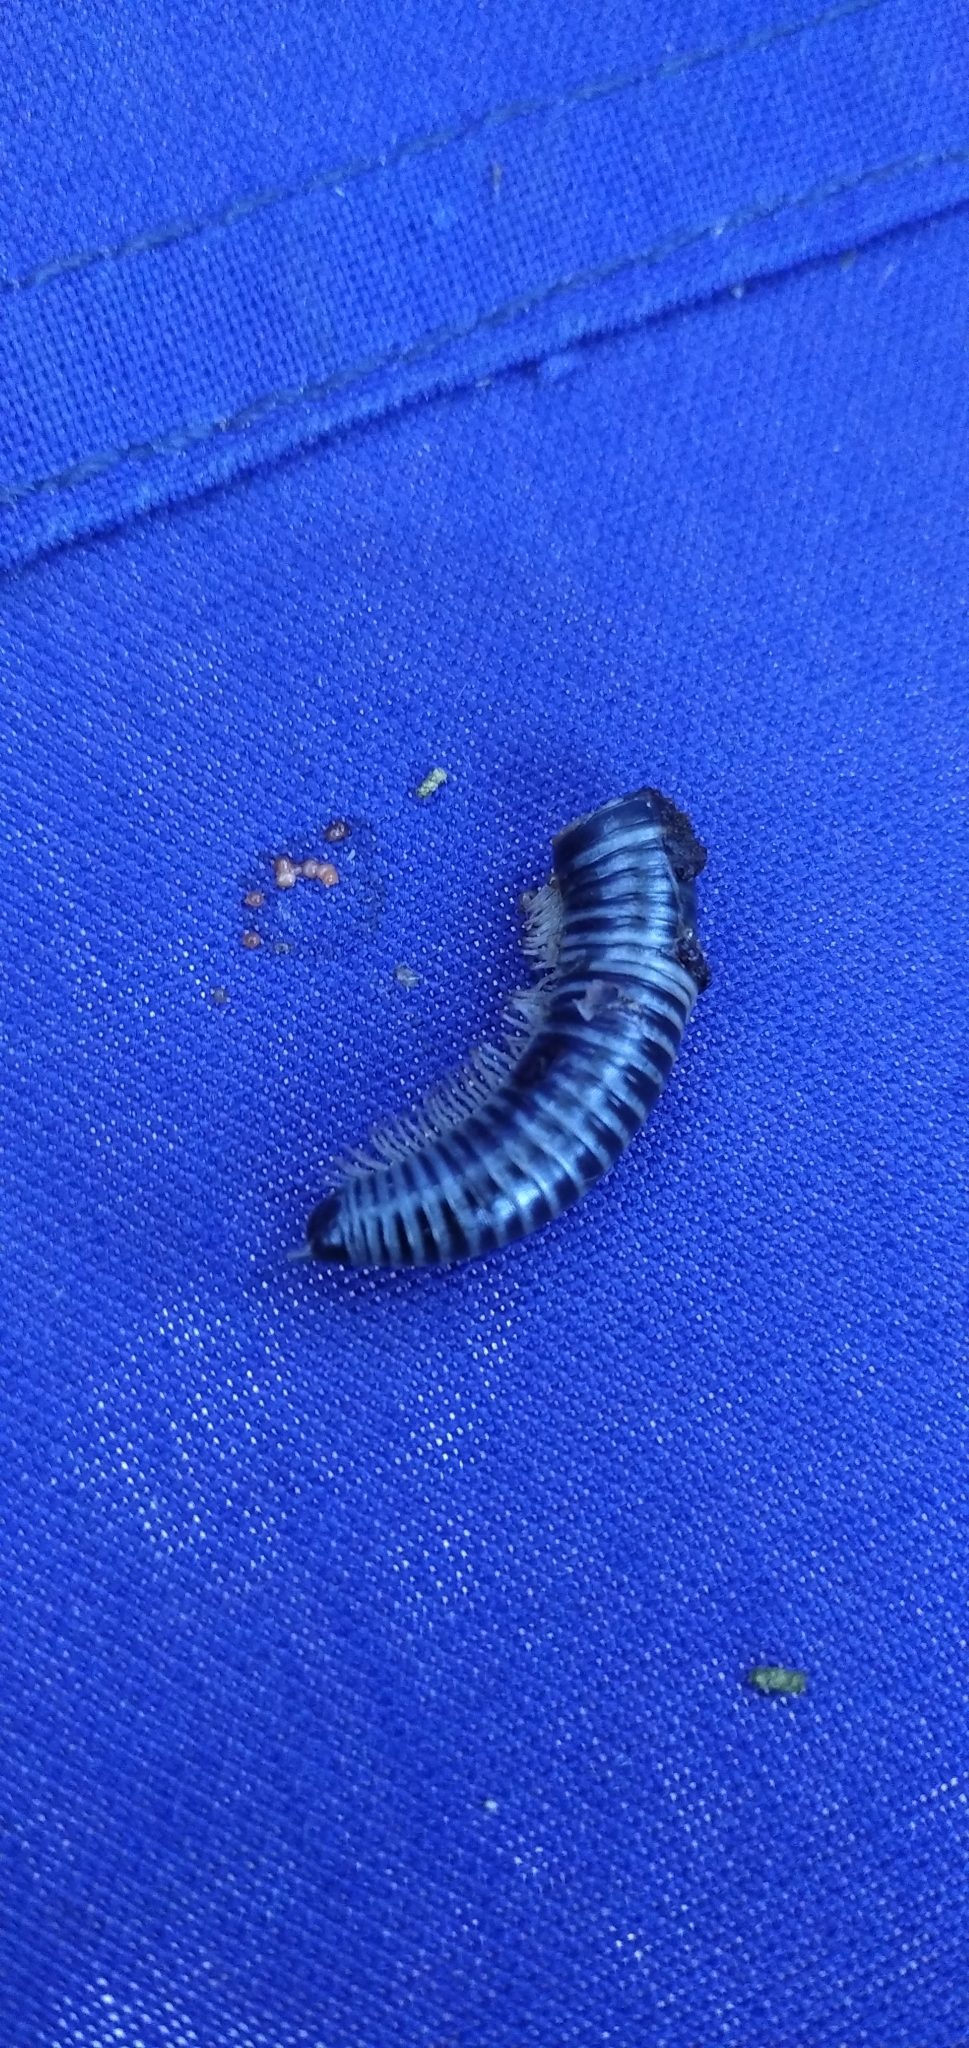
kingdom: Animalia
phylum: Arthropoda
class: Diplopoda
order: Julida
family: Julidae
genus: Ommatoiulus
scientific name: Ommatoiulus sabulosus
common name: Striped millipede
